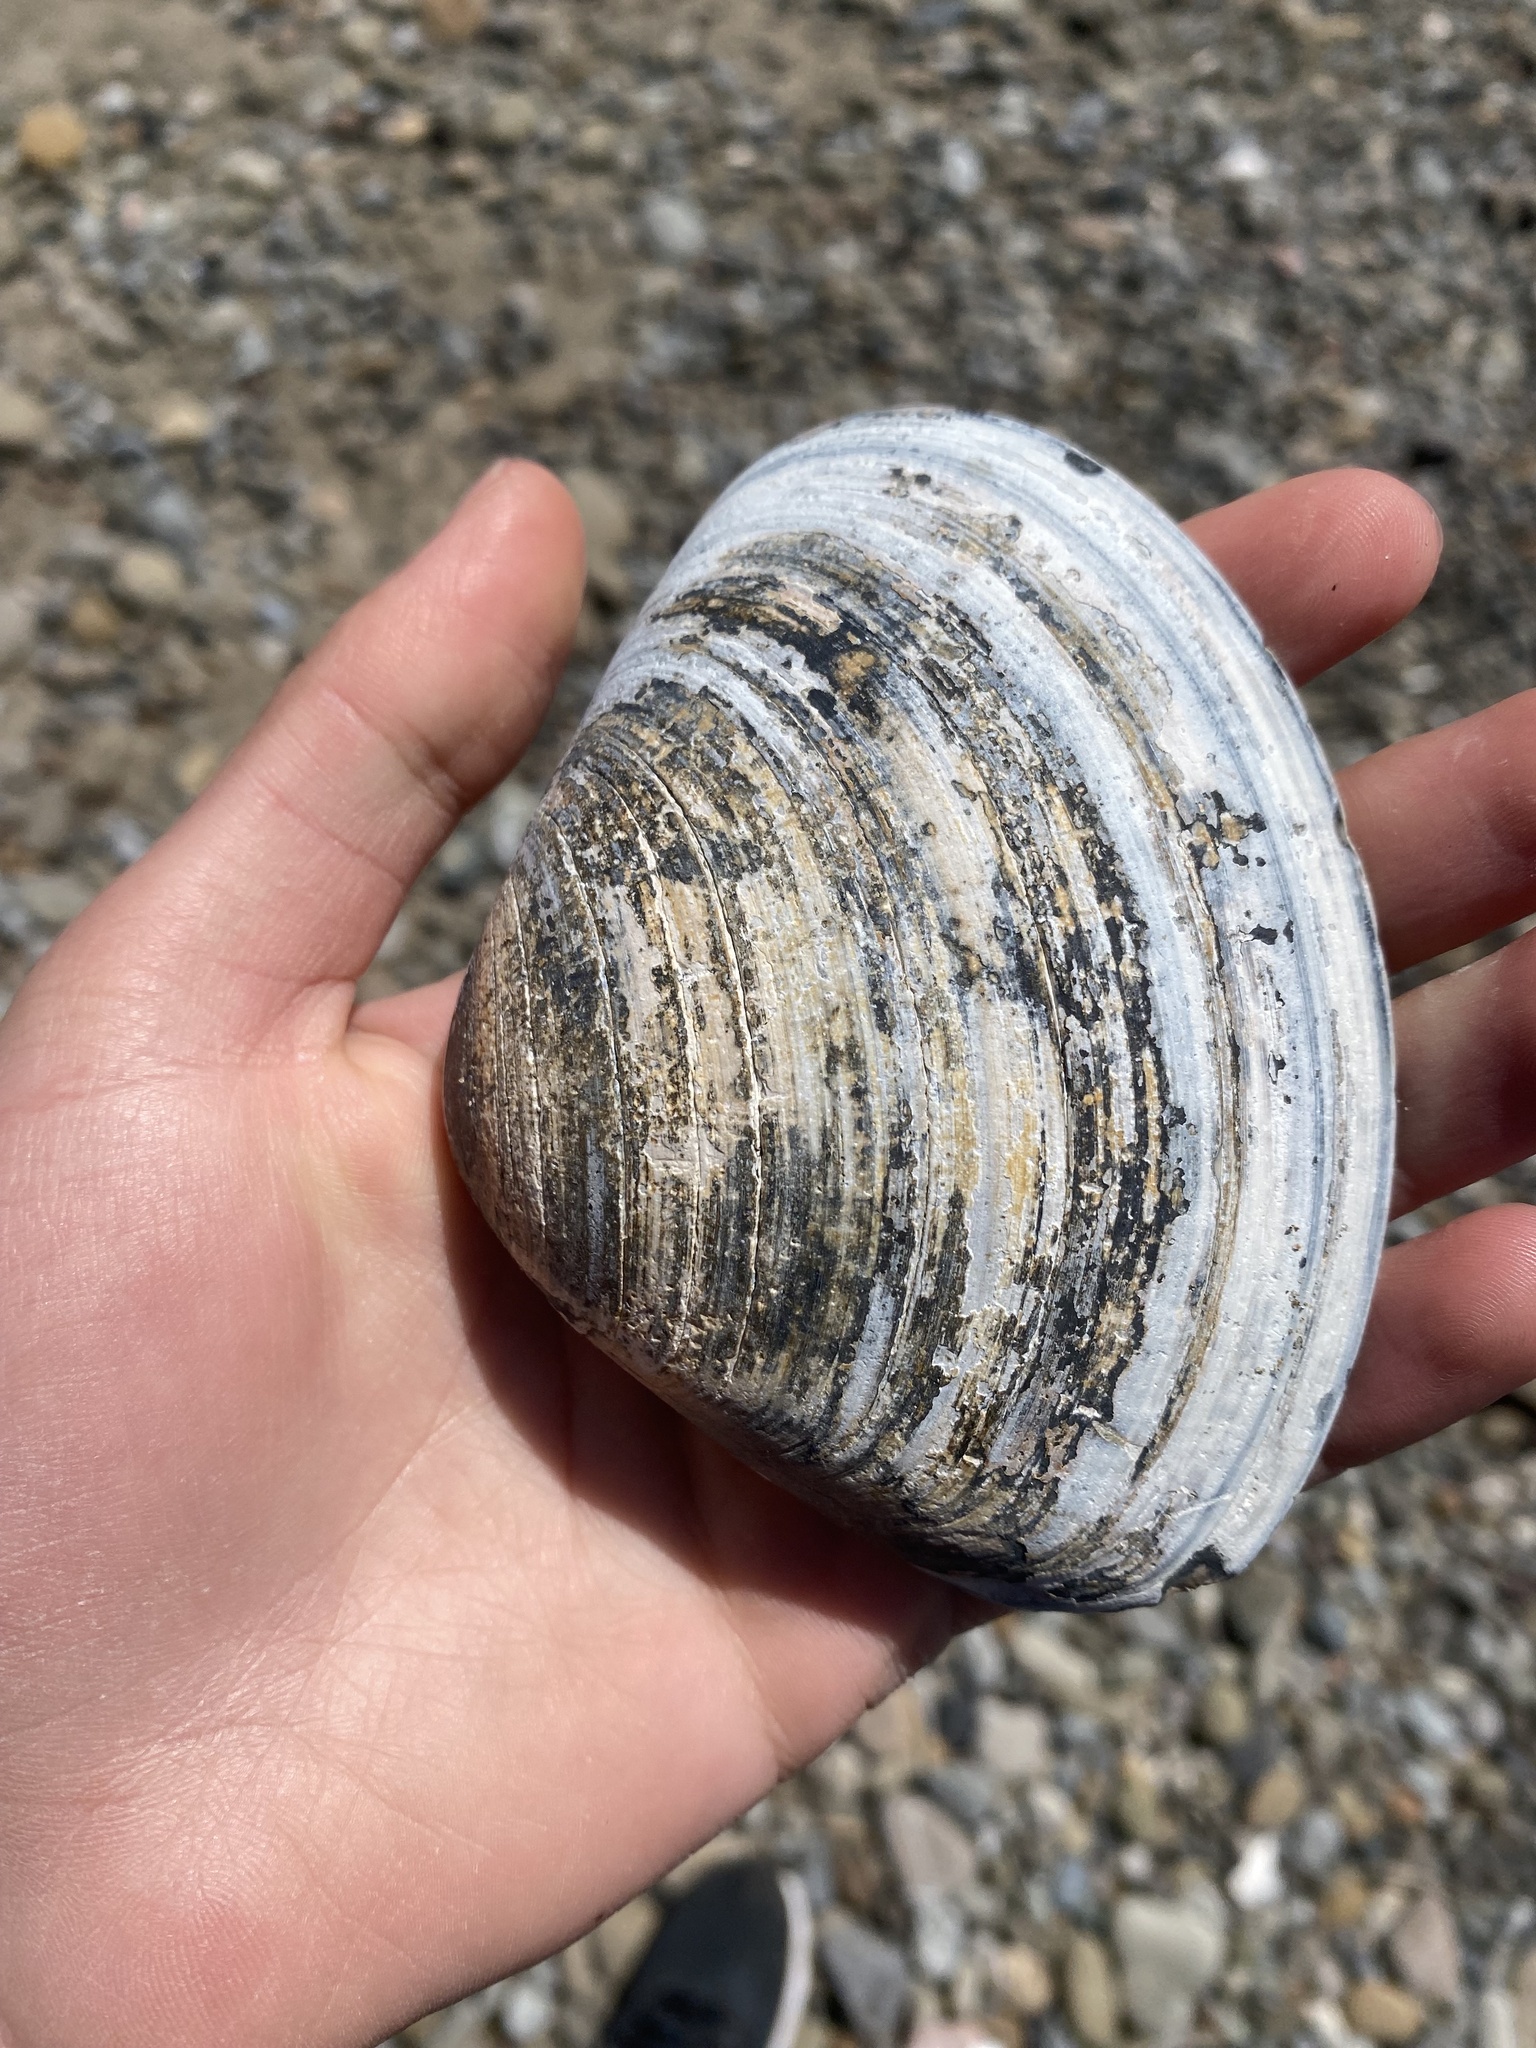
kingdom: Animalia
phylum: Mollusca
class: Bivalvia
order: Venerida
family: Veneridae
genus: Tivela
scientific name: Tivela stultorum
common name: Pismo clam
